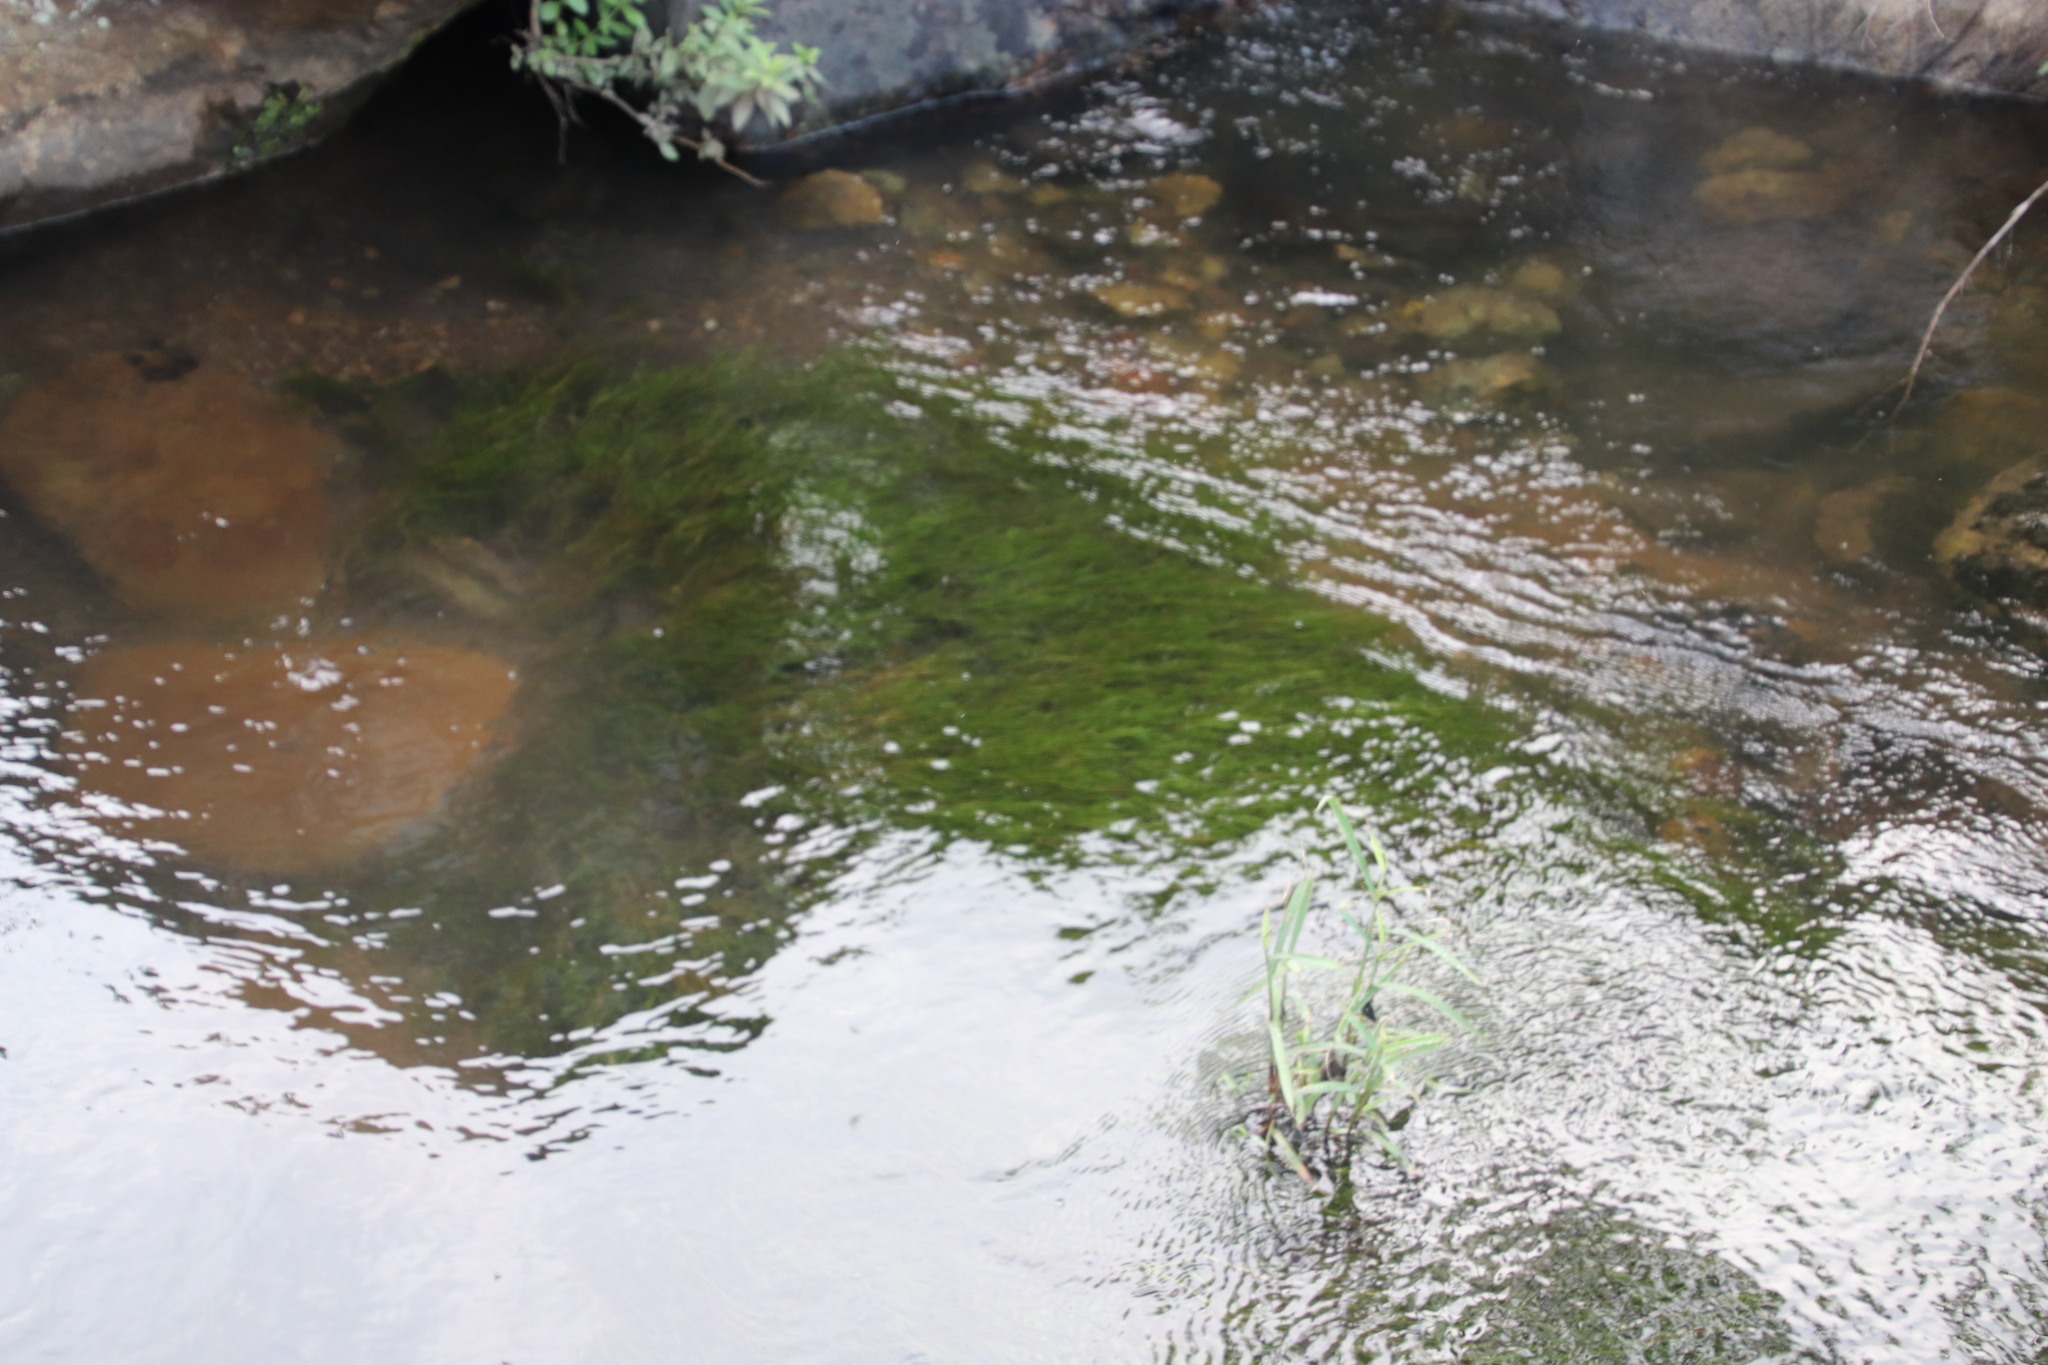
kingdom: Plantae
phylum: Tracheophyta
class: Liliopsida
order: Alismatales
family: Potamogetonaceae
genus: Potamogeton
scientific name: Potamogeton pusillus
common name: Lesser pondweed
